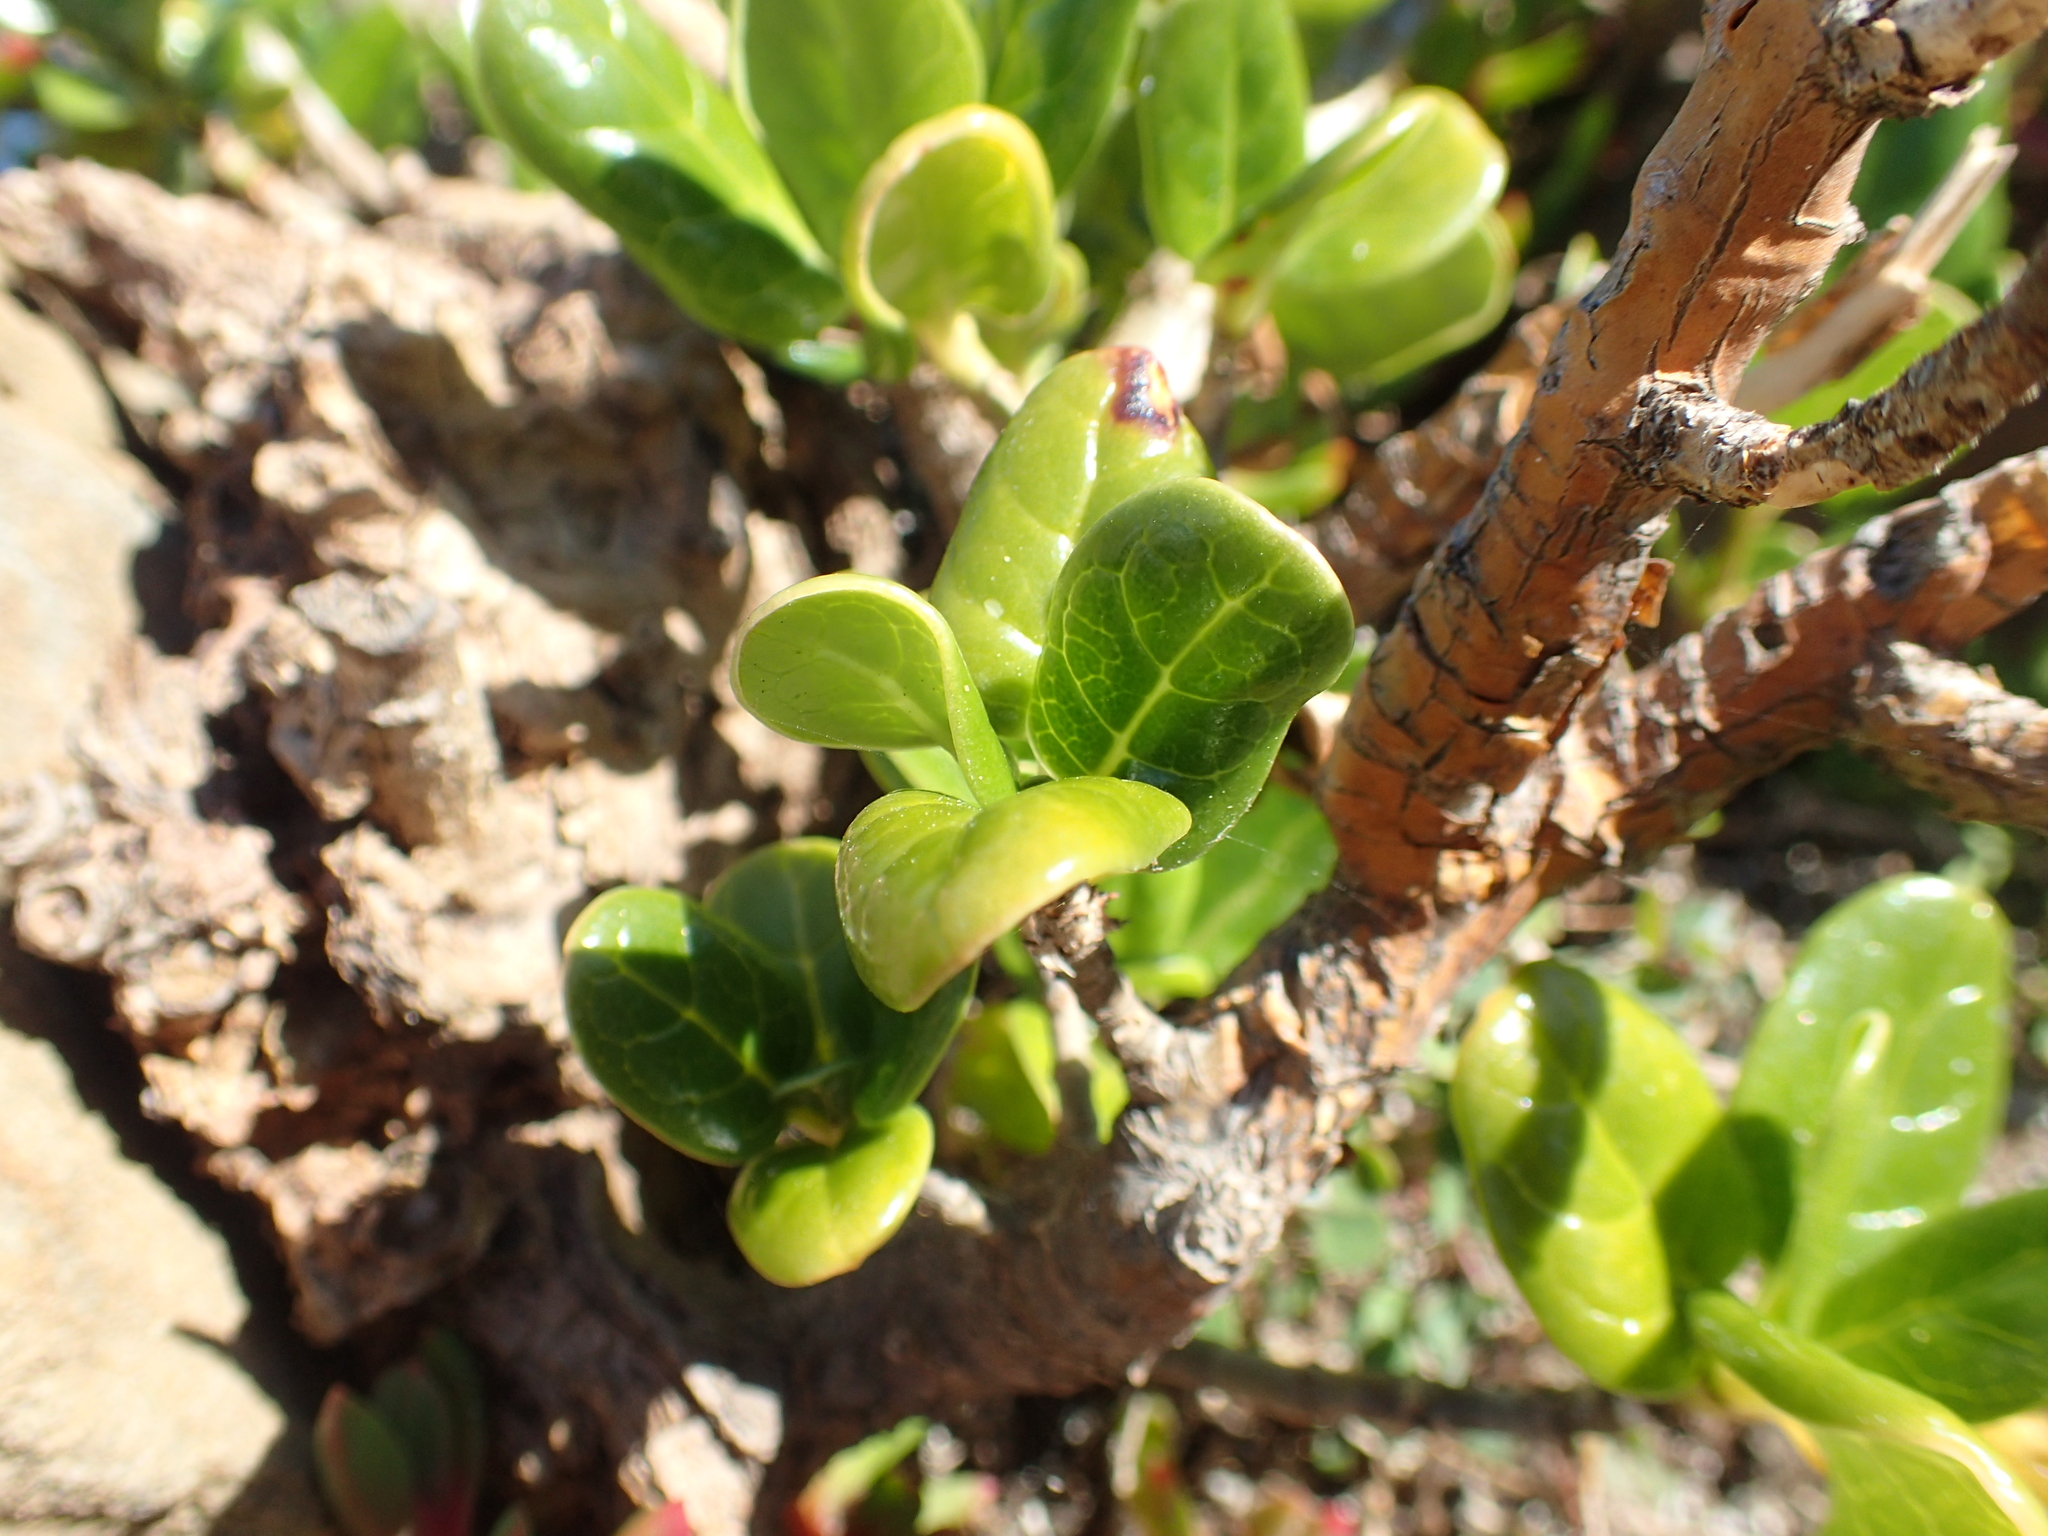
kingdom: Plantae
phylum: Tracheophyta
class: Magnoliopsida
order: Gentianales
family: Rubiaceae
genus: Coprosma
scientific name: Coprosma repens
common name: Tree bedstraw
